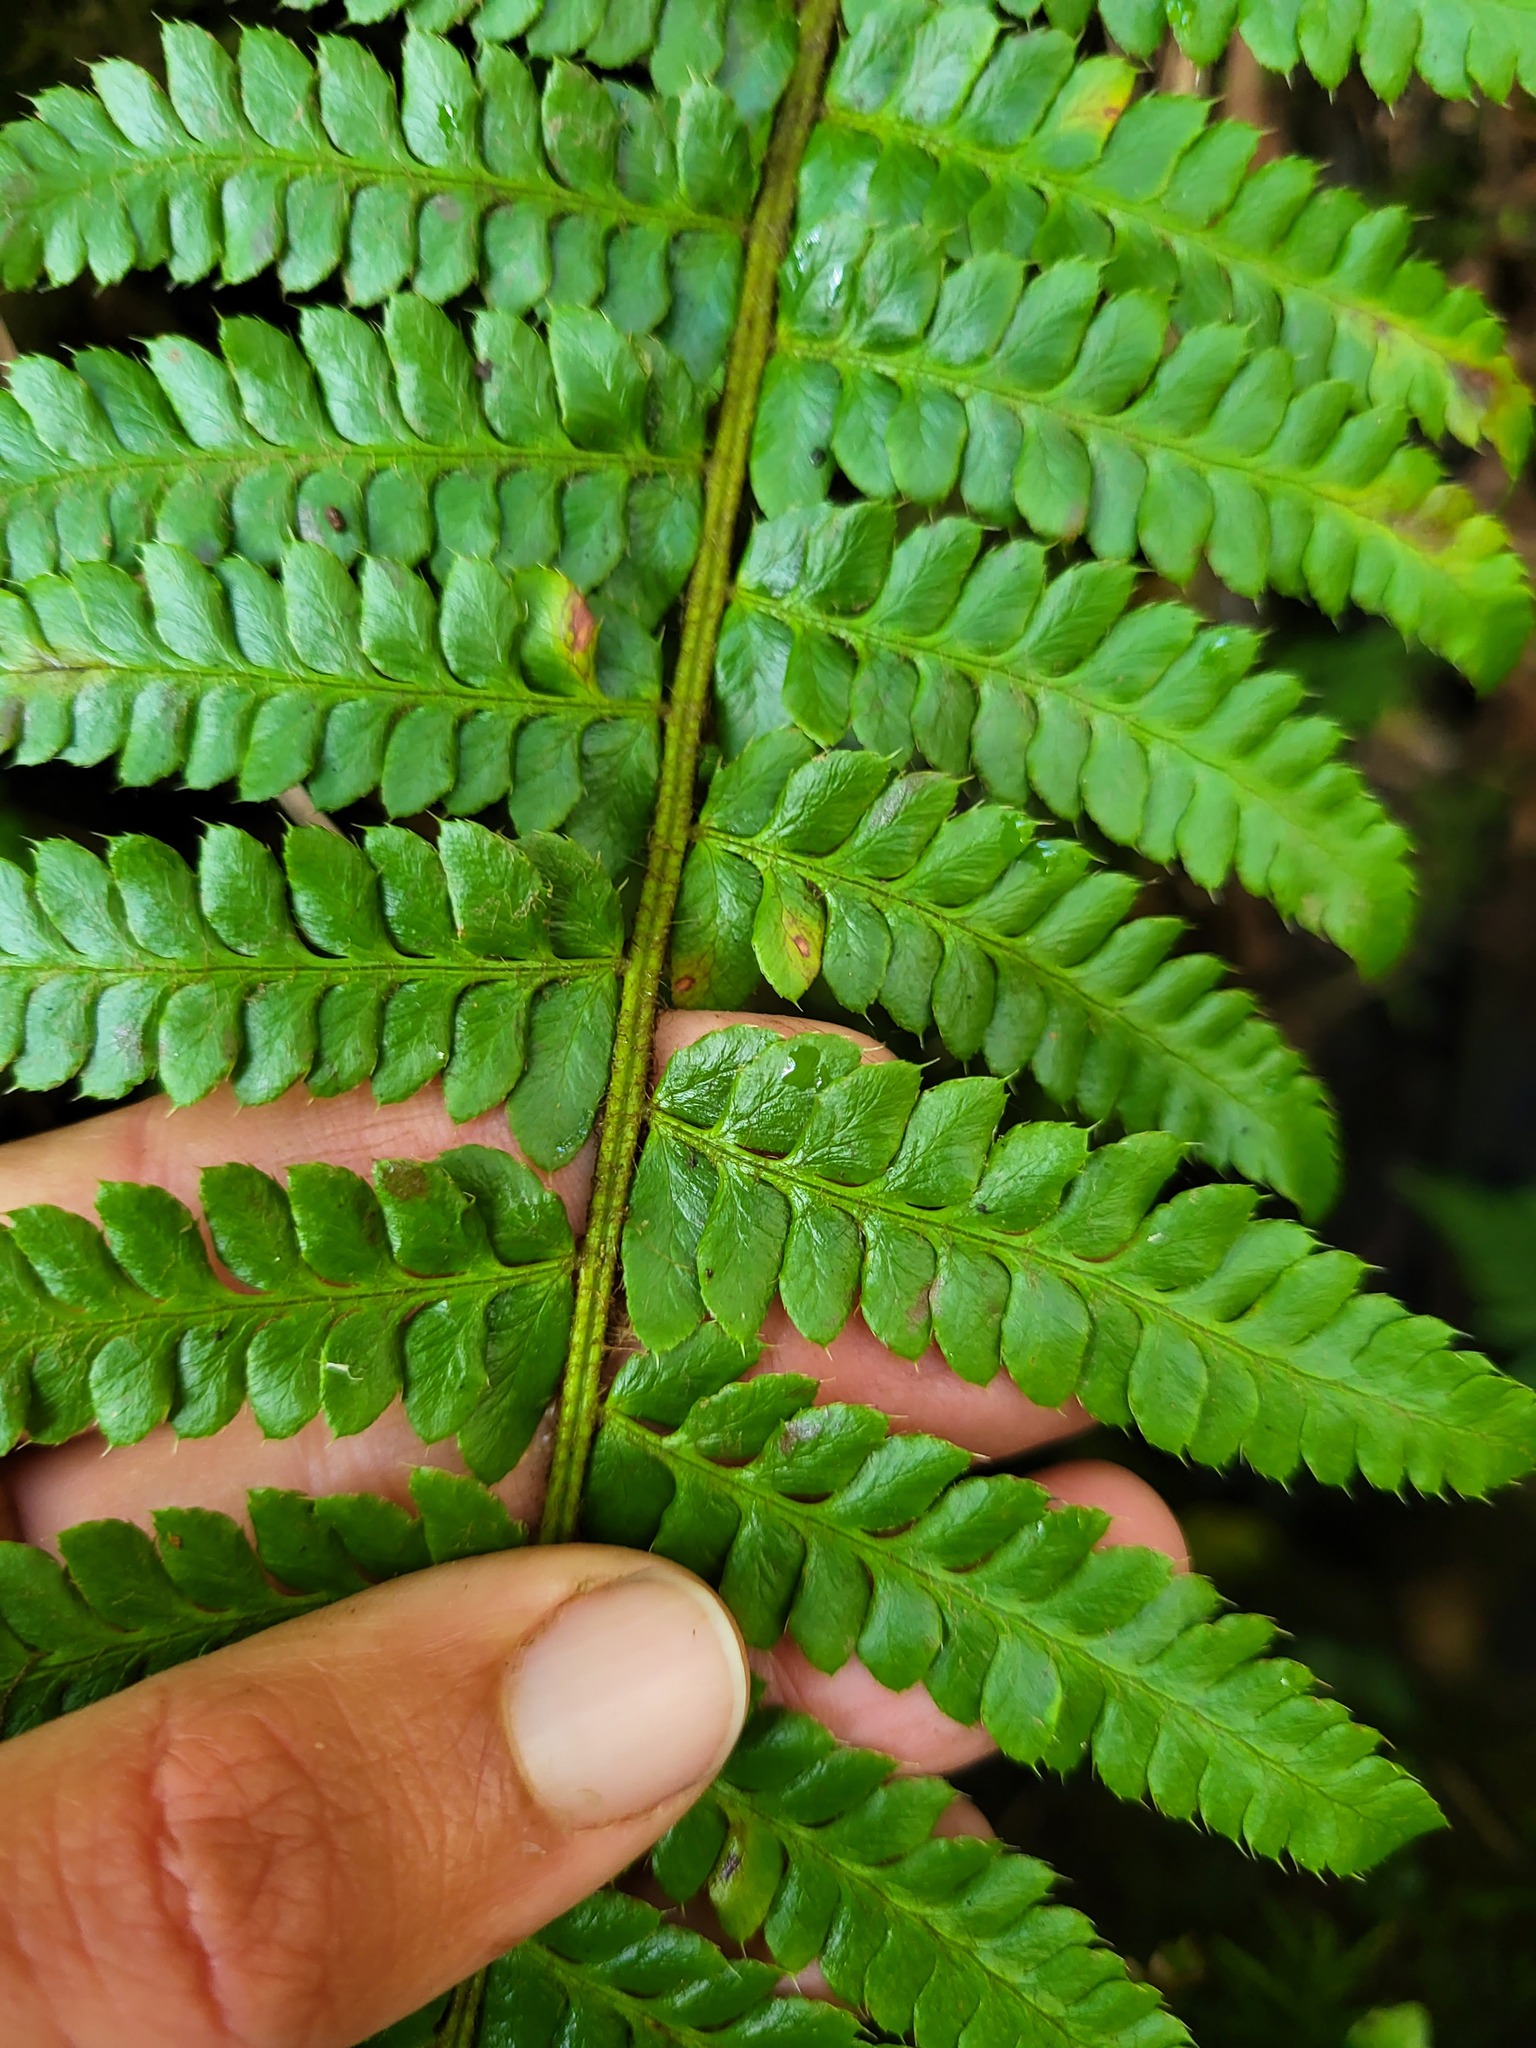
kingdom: Plantae
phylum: Tracheophyta
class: Polypodiopsida
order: Polypodiales
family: Dryopteridaceae
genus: Polystichum
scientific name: Polystichum setigerum
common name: Alaska holly fern
